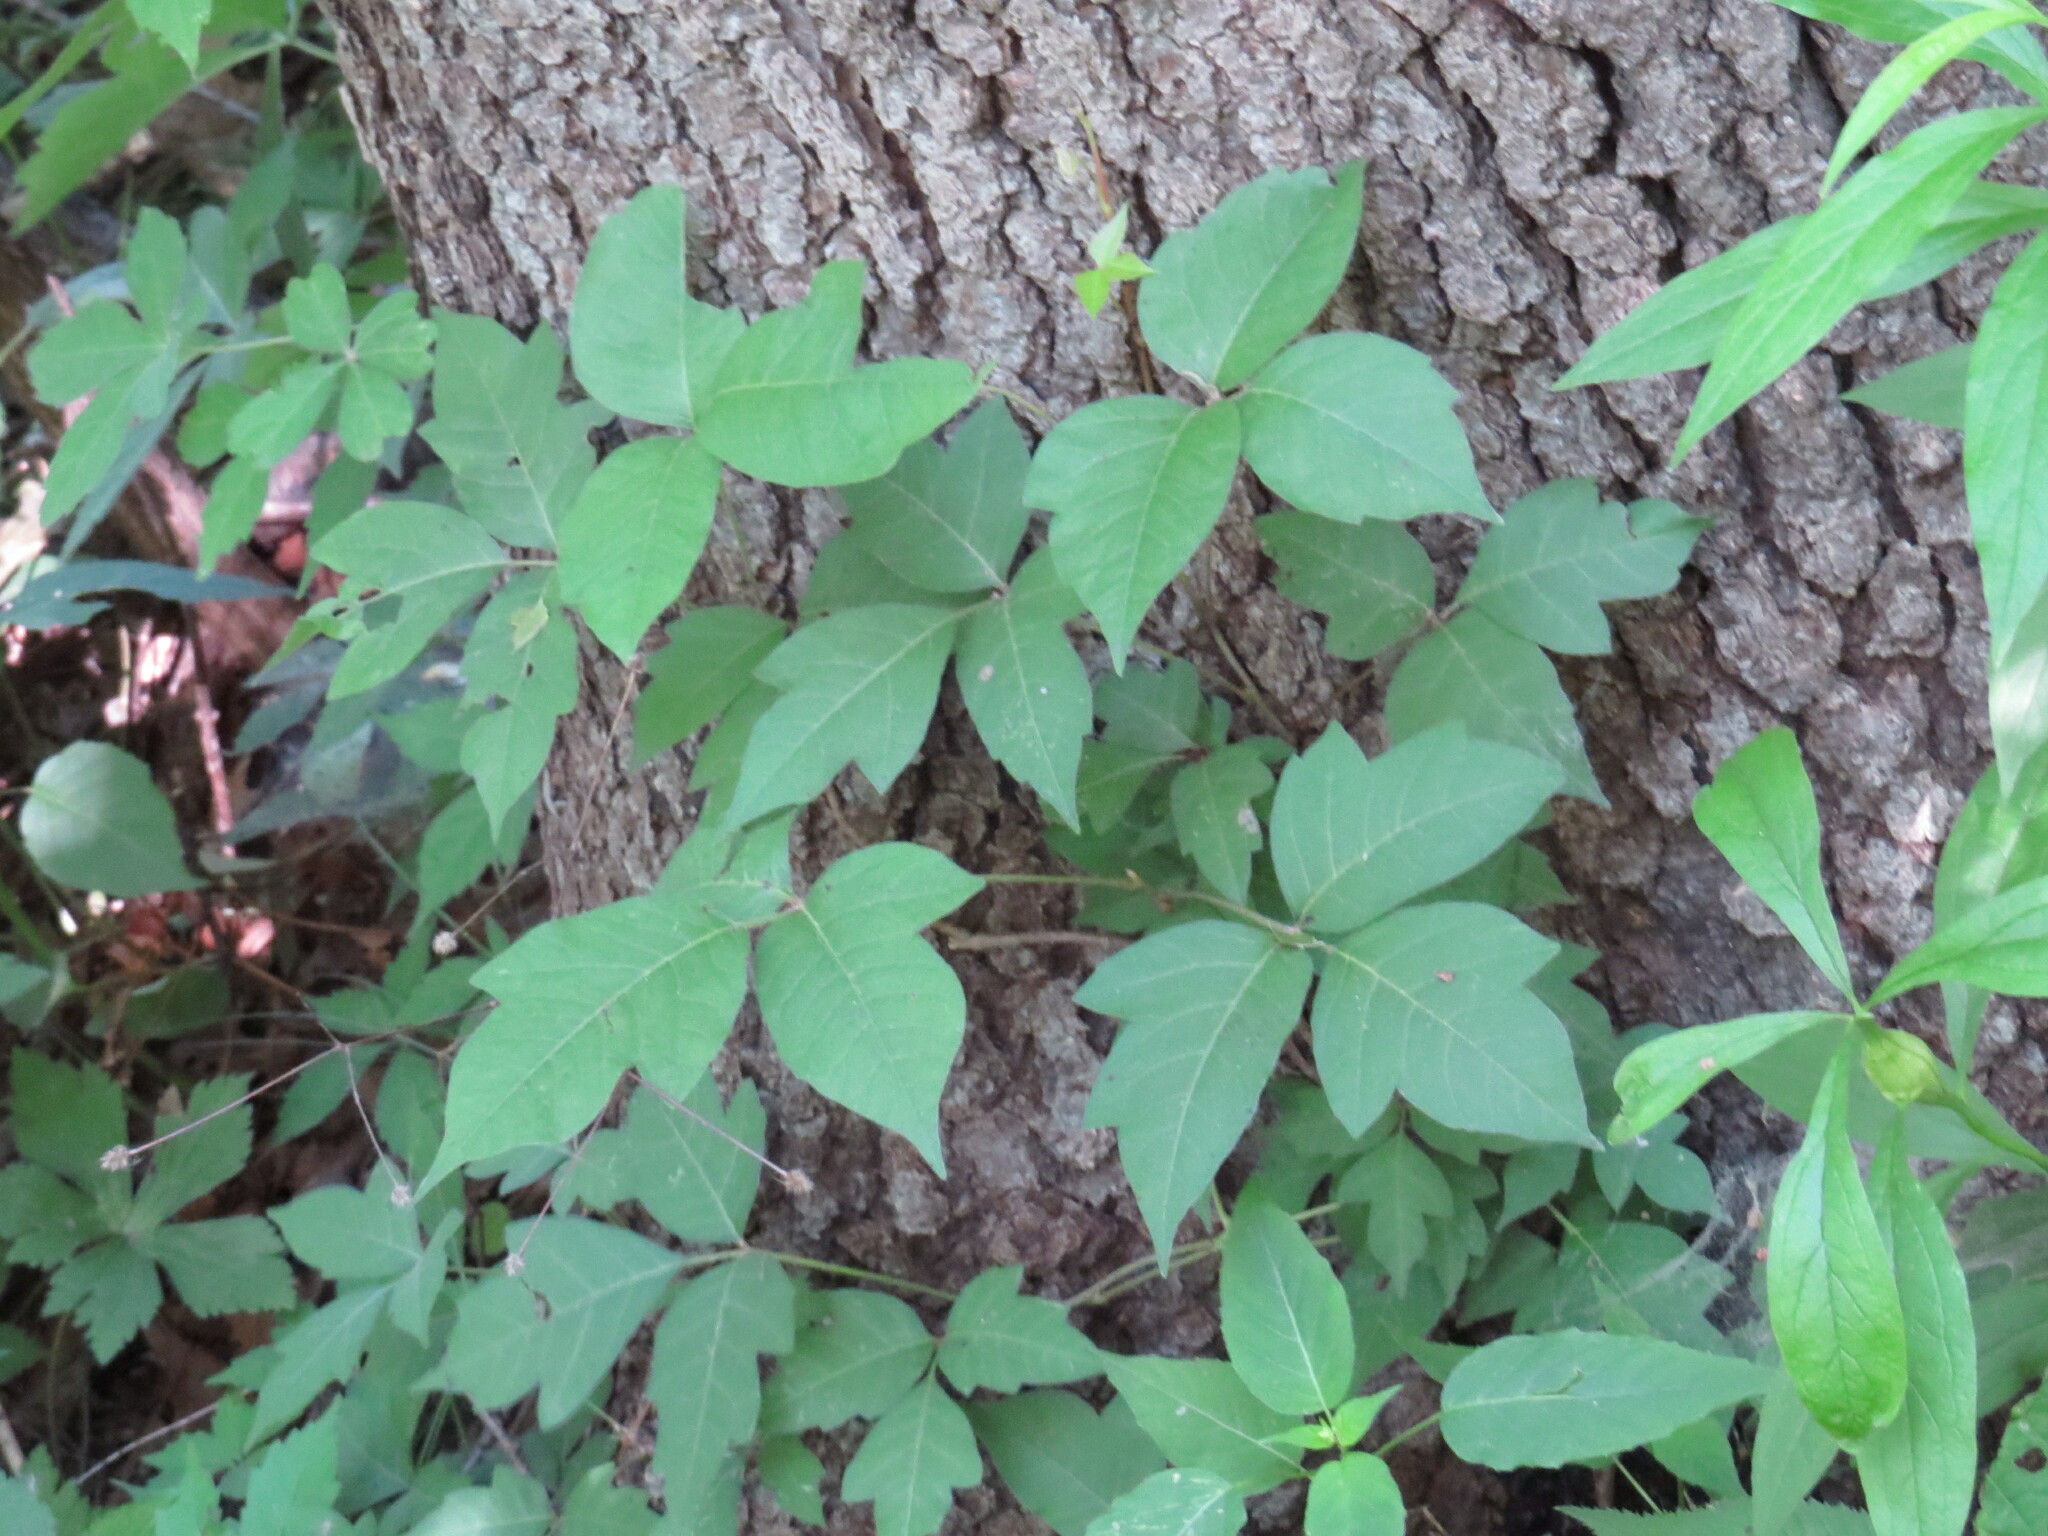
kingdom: Plantae
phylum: Tracheophyta
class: Magnoliopsida
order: Sapindales
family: Anacardiaceae
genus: Toxicodendron
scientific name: Toxicodendron radicans
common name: Poison ivy
